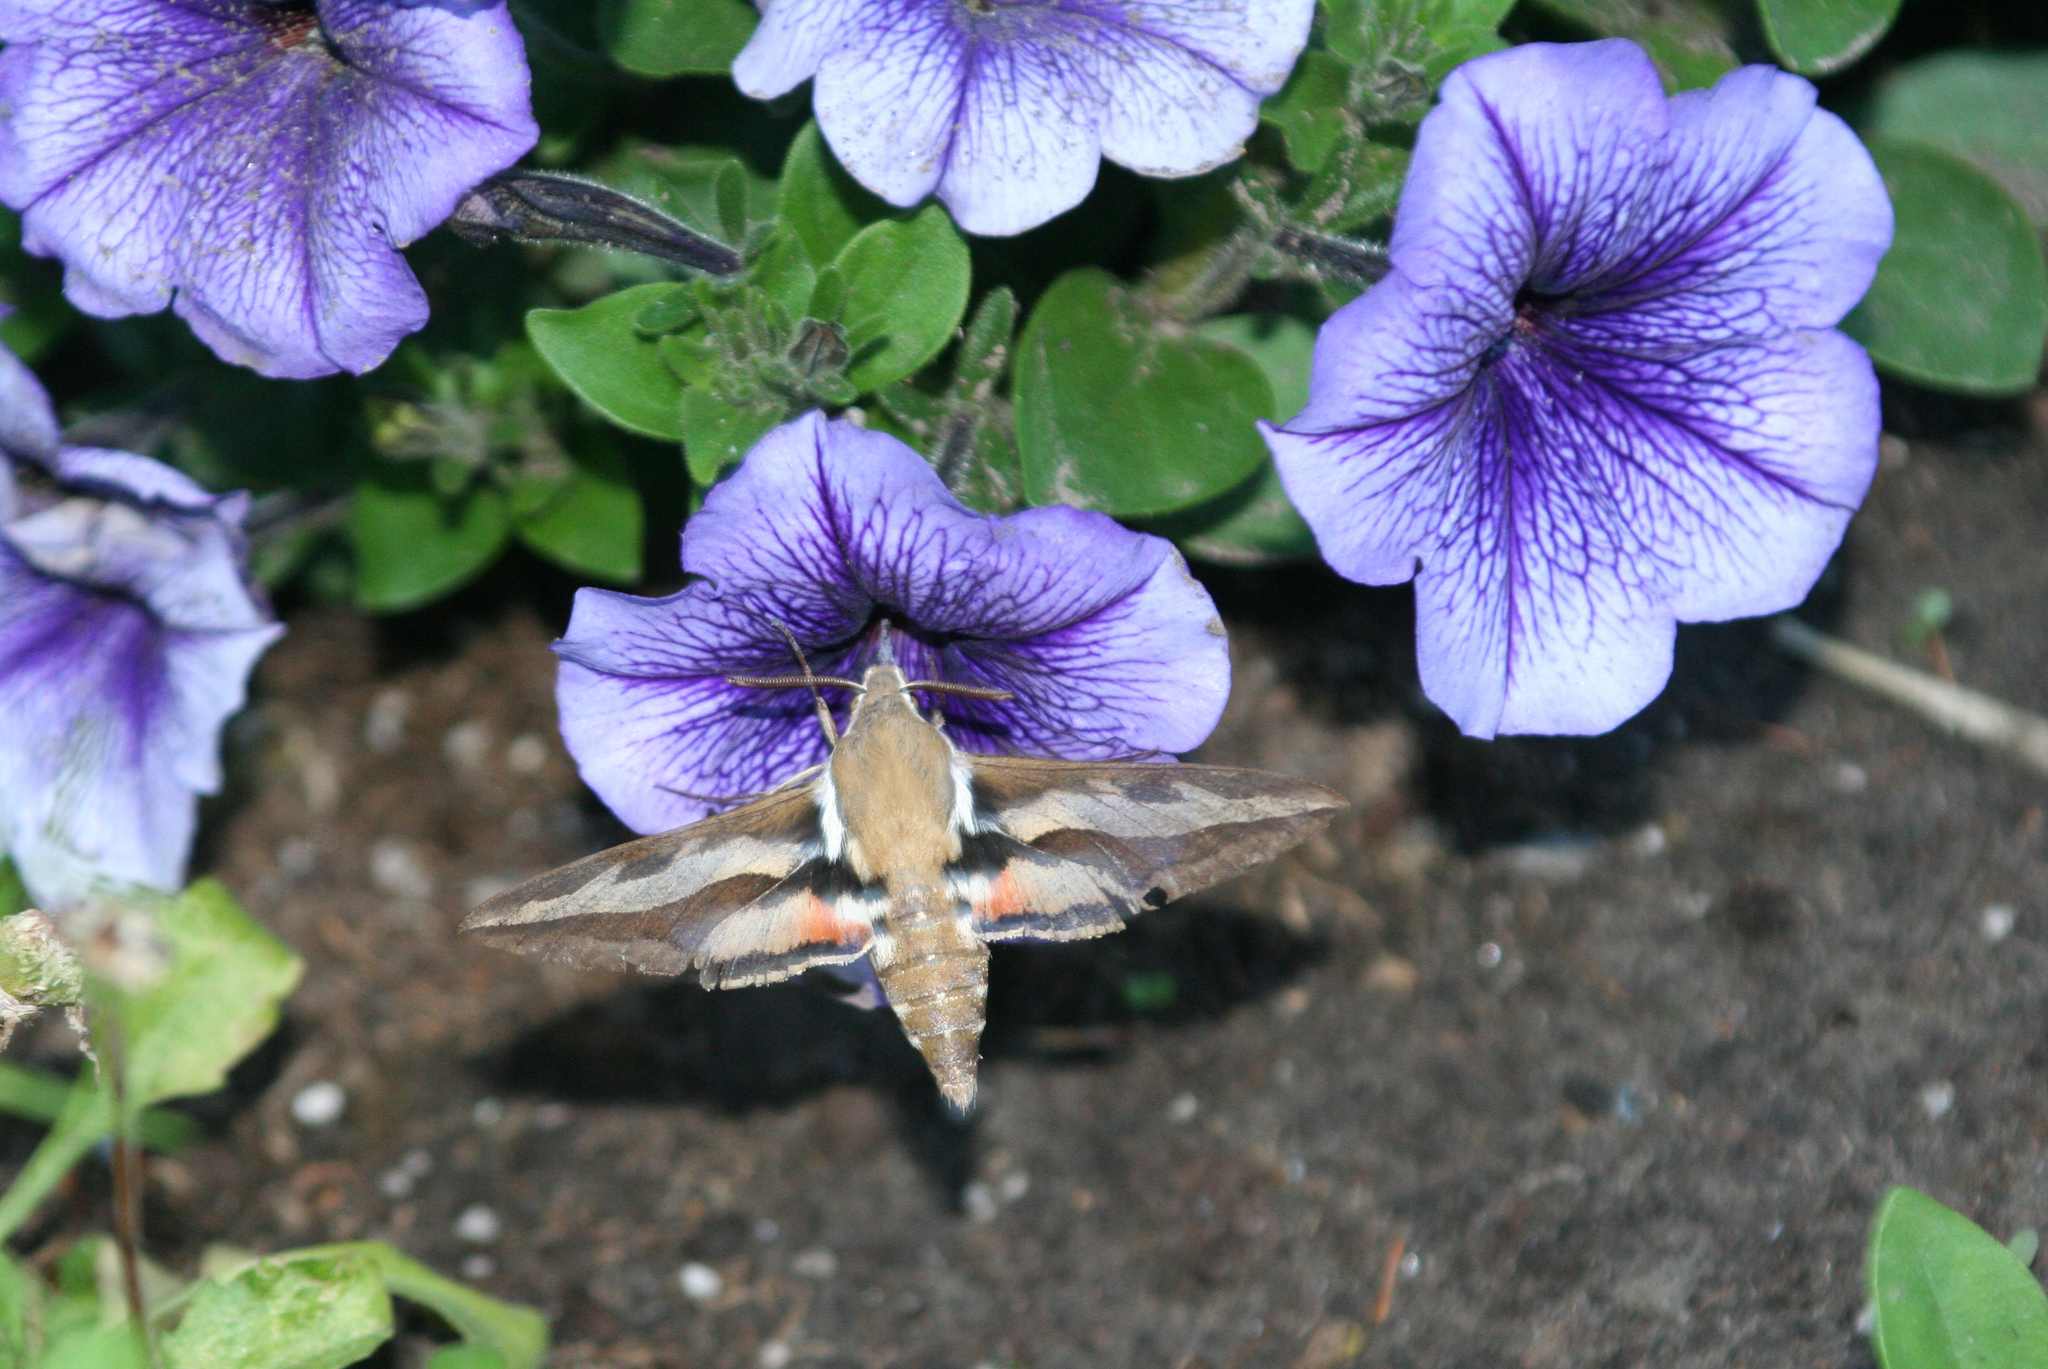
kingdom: Animalia
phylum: Arthropoda
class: Insecta
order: Lepidoptera
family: Sphingidae
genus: Hyles
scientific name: Hyles gallii
